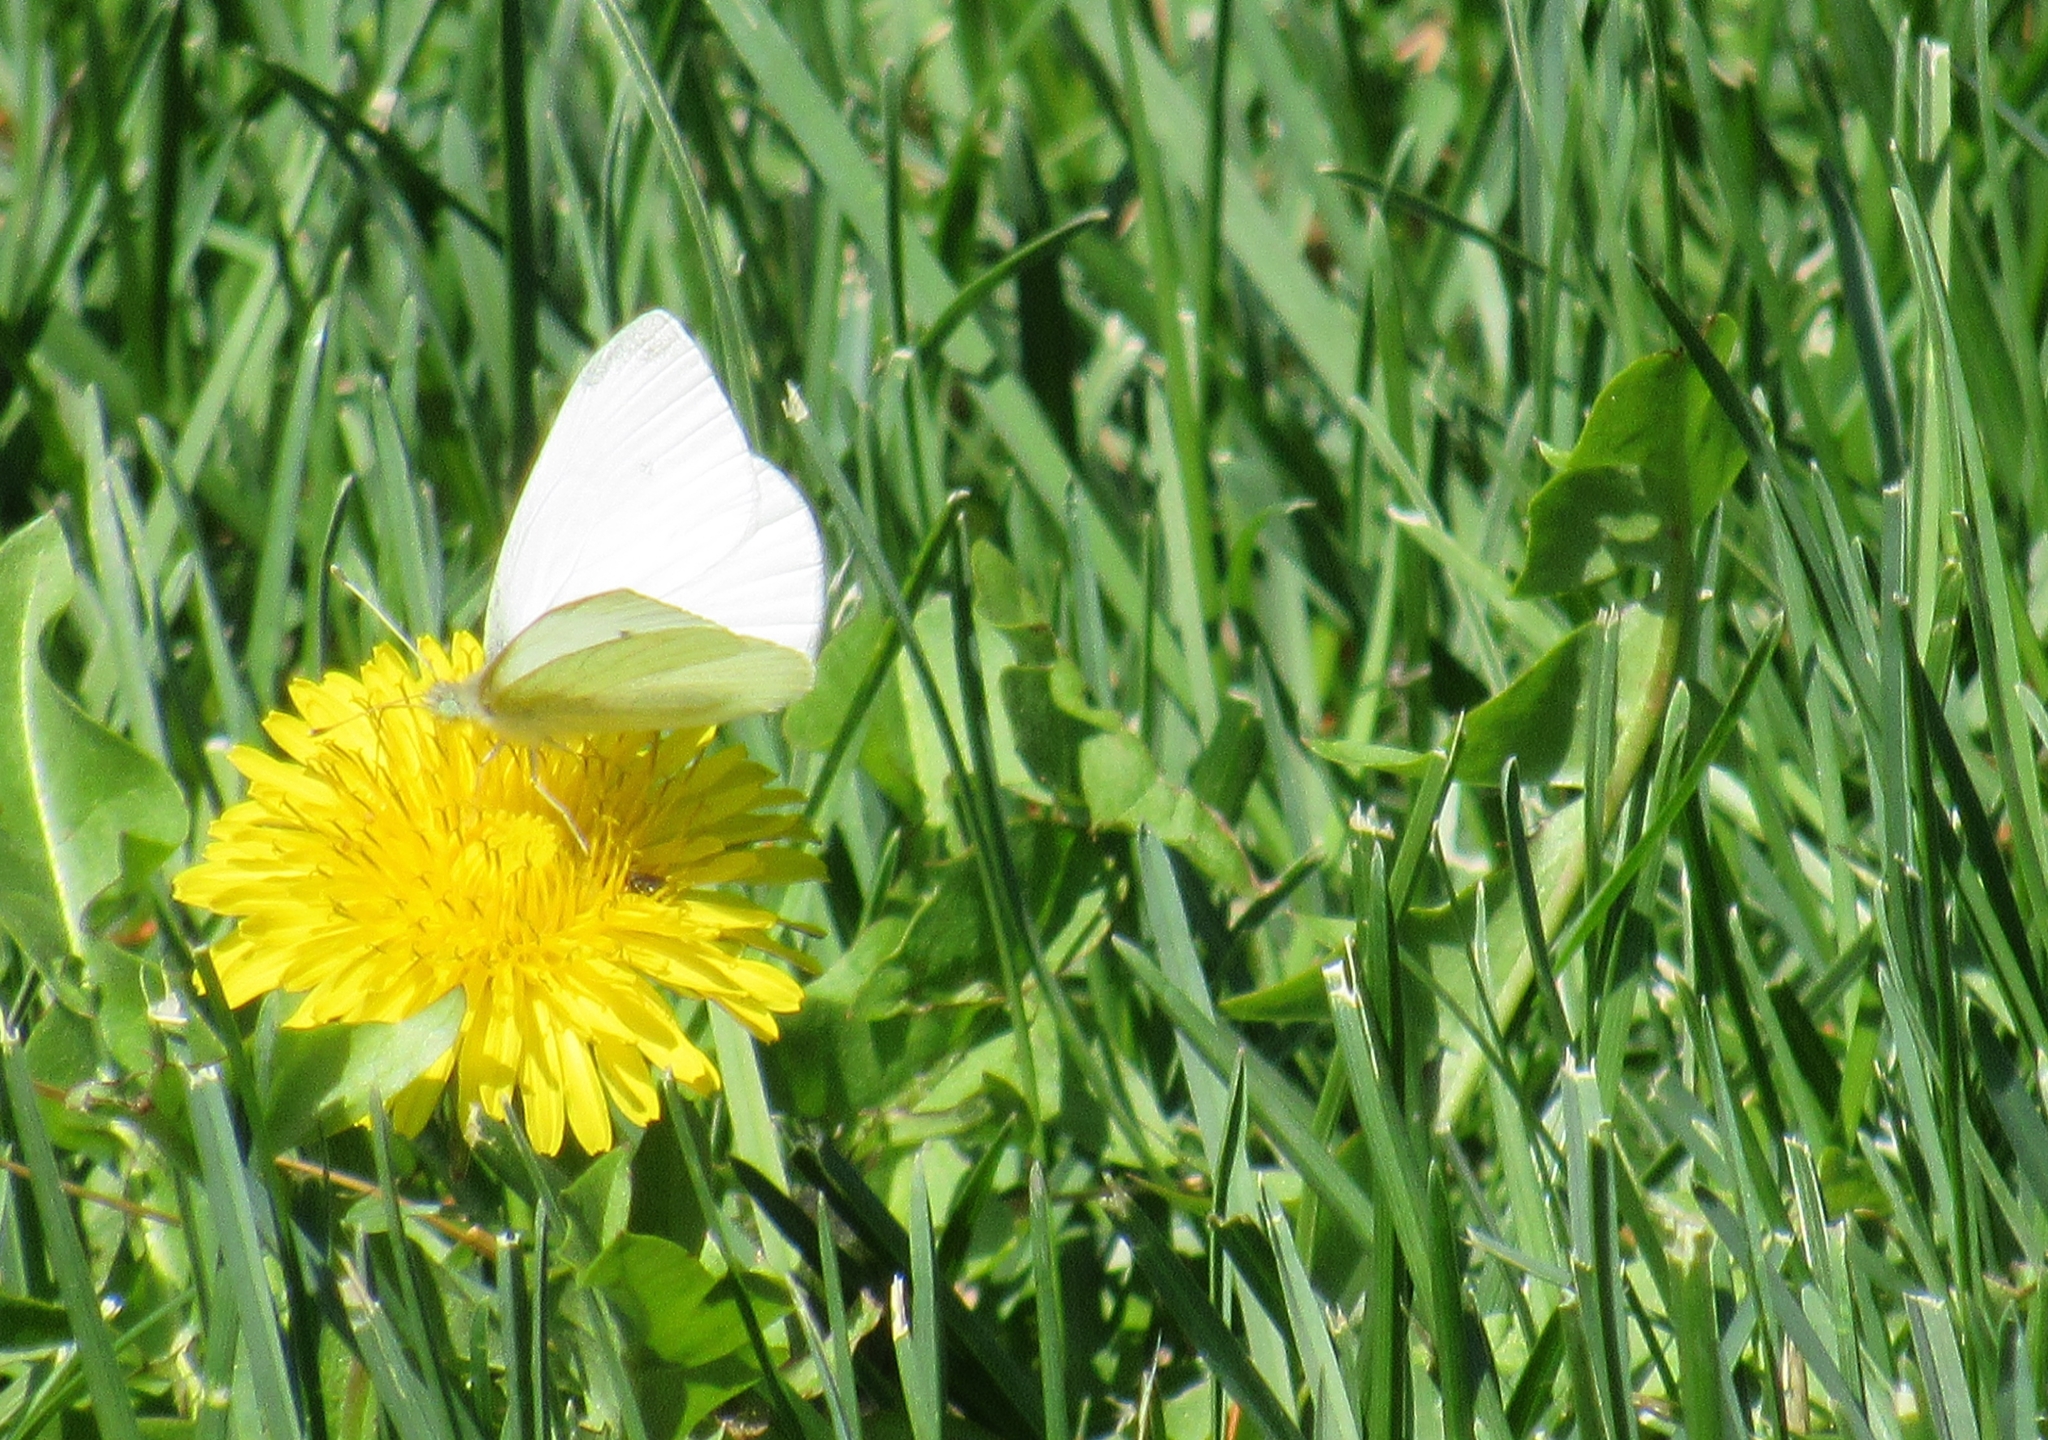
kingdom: Animalia
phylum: Arthropoda
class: Insecta
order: Lepidoptera
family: Pieridae
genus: Pieris
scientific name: Pieris rapae
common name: Small white
